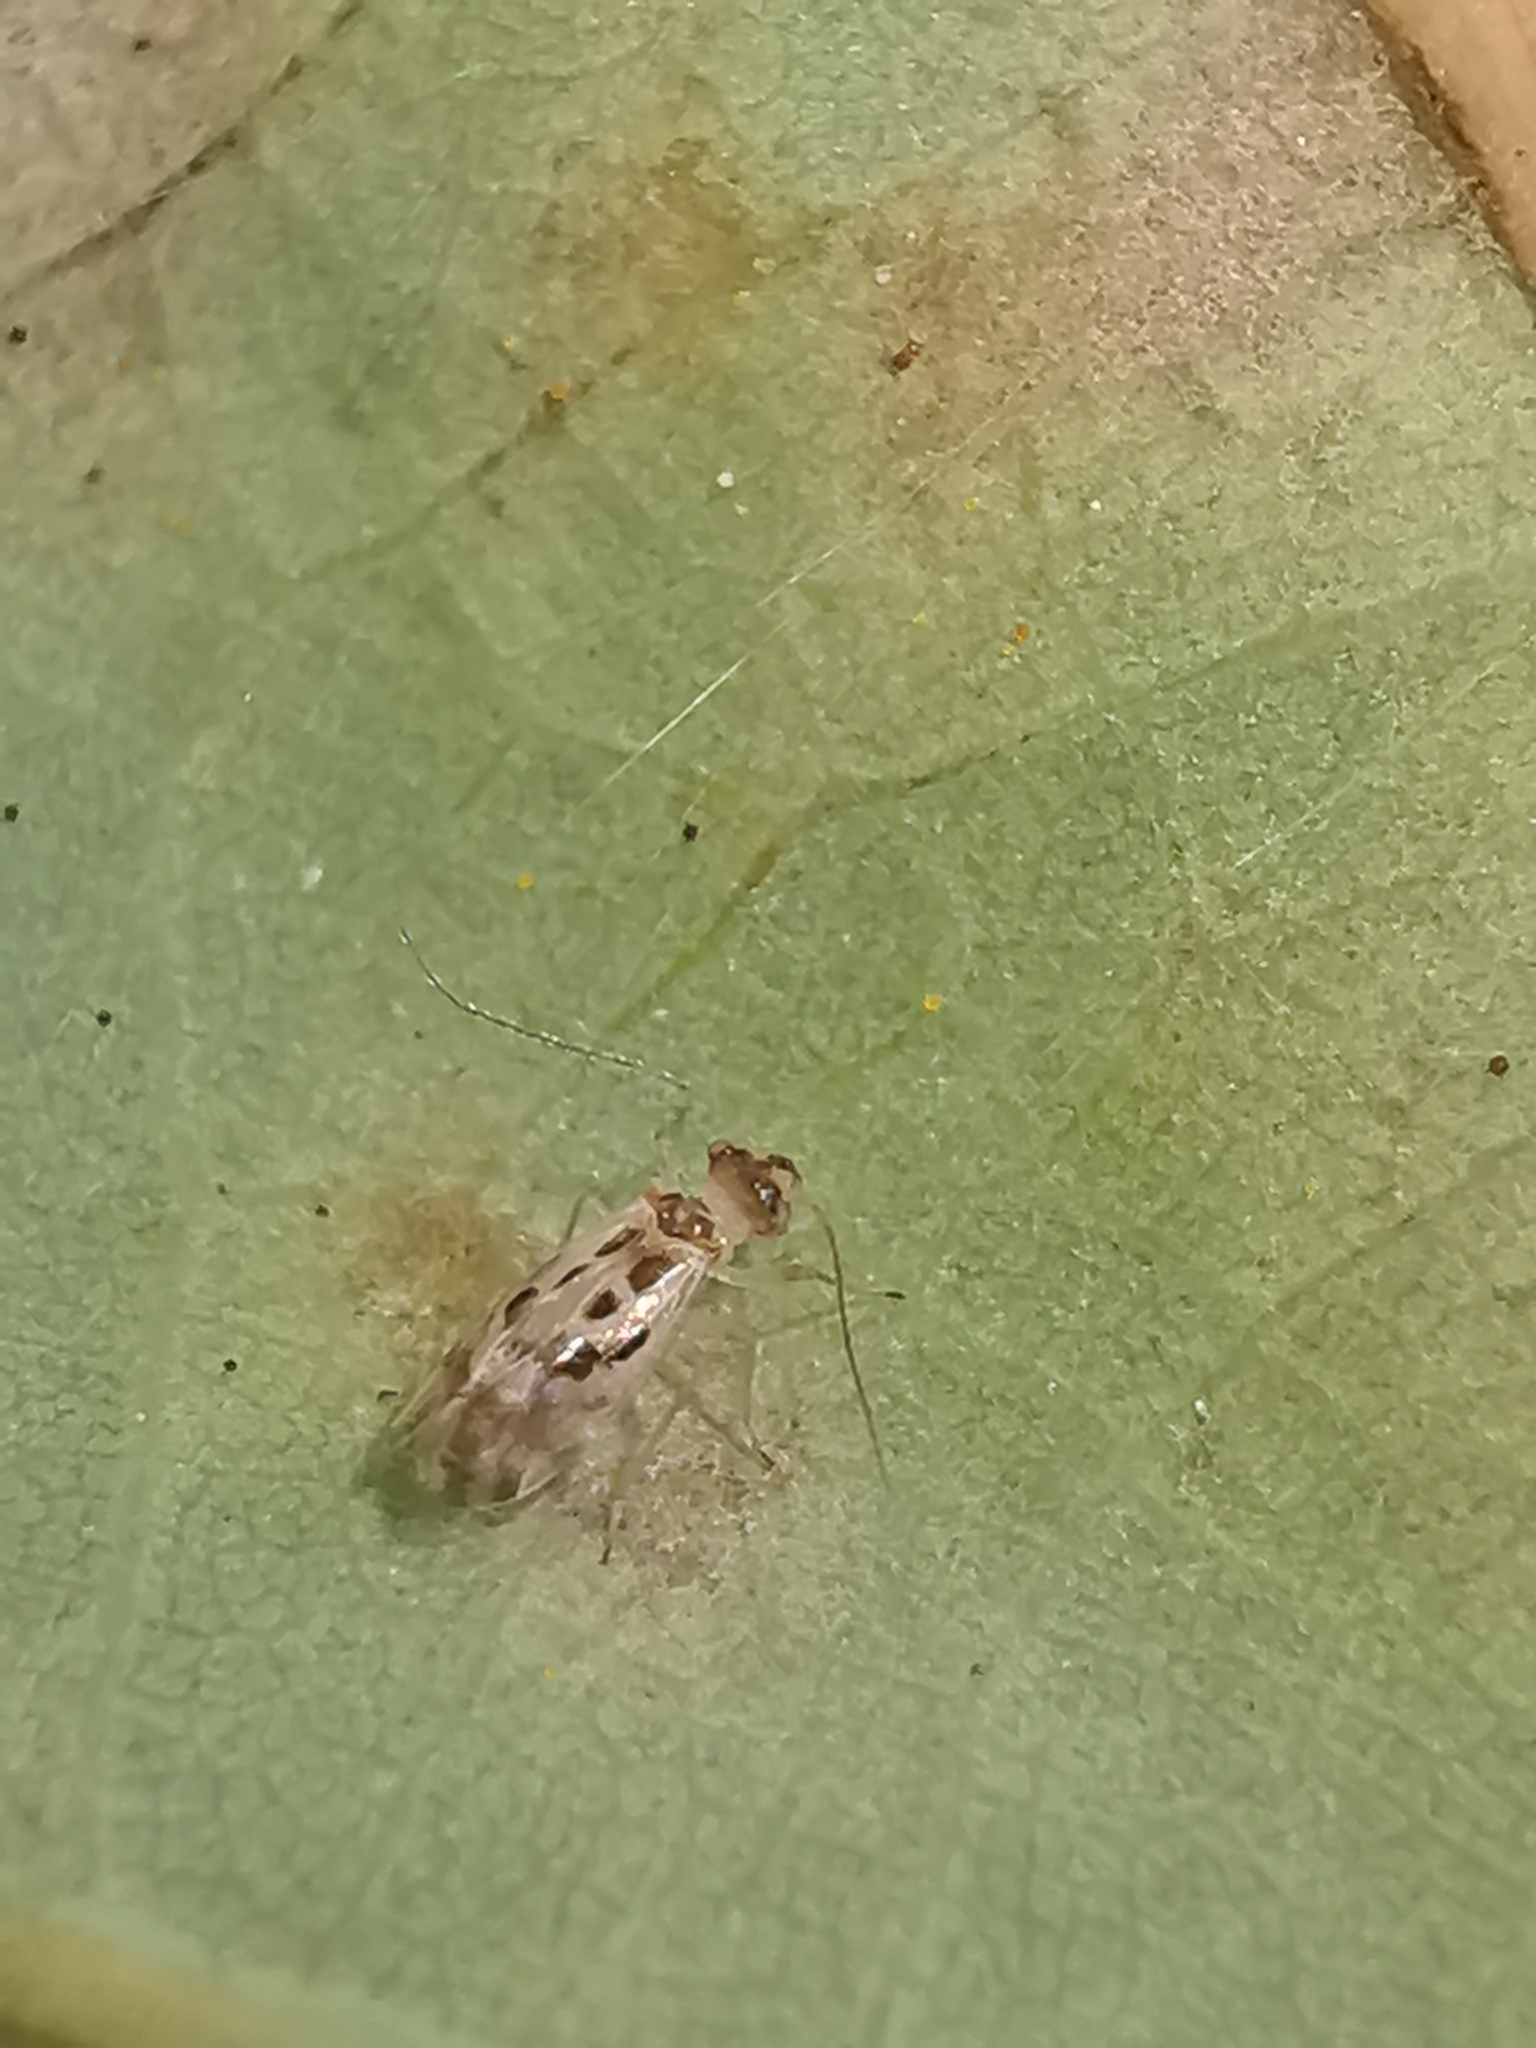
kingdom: Animalia
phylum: Arthropoda
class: Insecta
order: Psocodea
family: Stenopsocidae
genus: Graphopsocus
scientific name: Graphopsocus cruciatus
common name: Lizard bark louse
